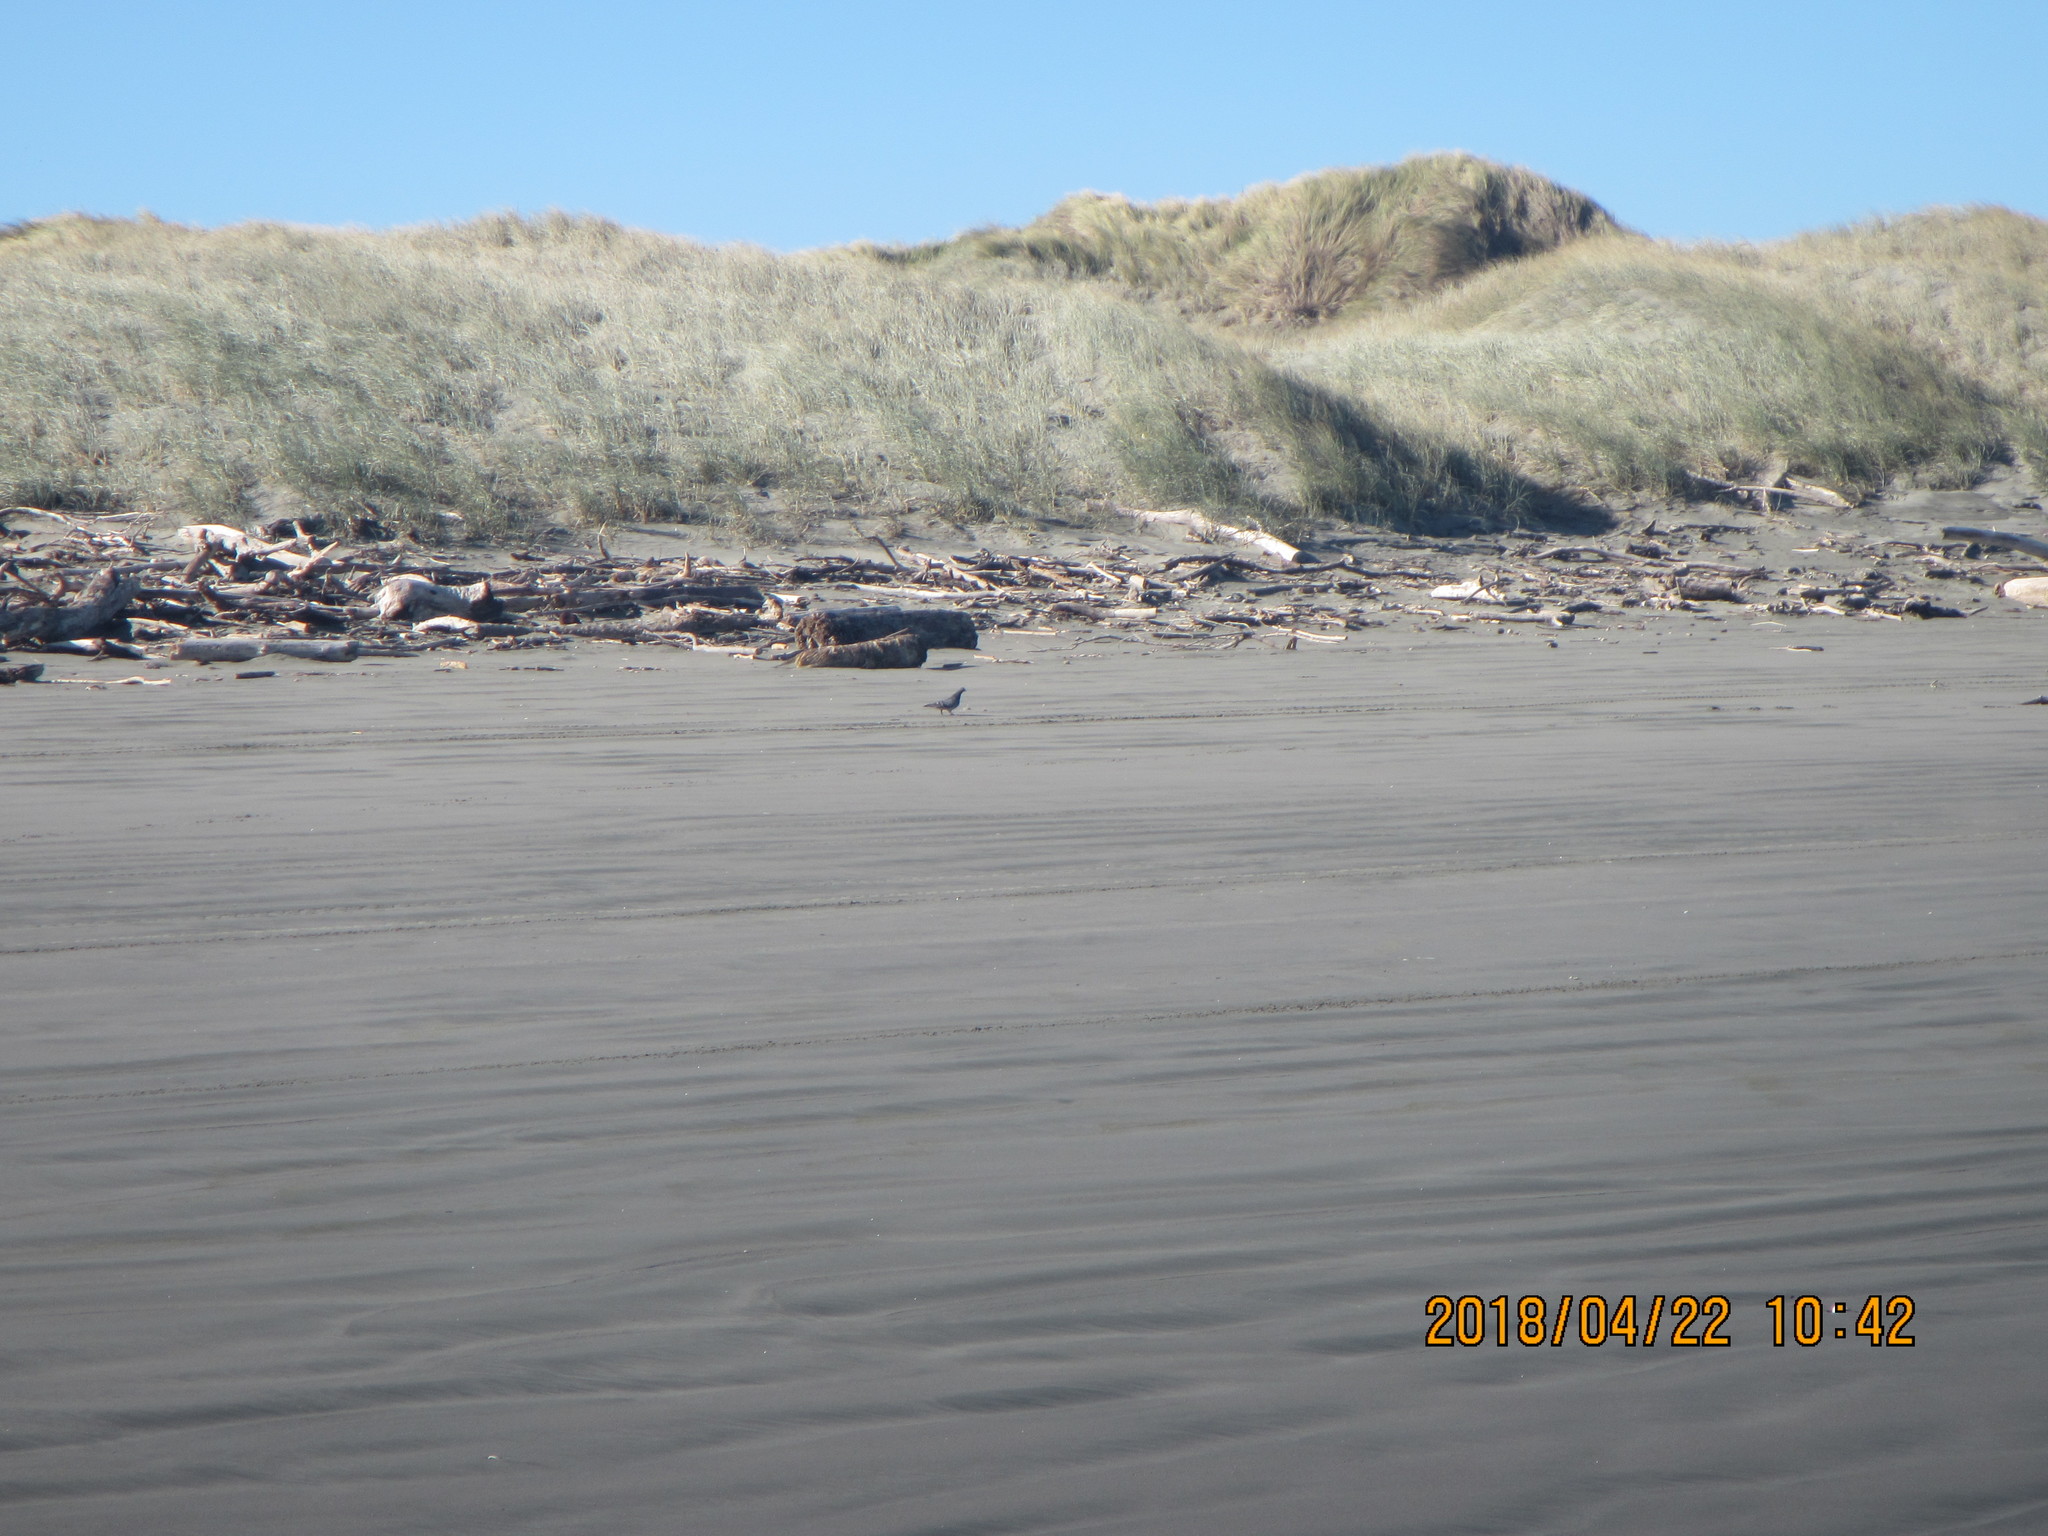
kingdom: Animalia
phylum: Chordata
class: Aves
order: Columbiformes
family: Columbidae
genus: Columba
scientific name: Columba livia
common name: Rock pigeon
